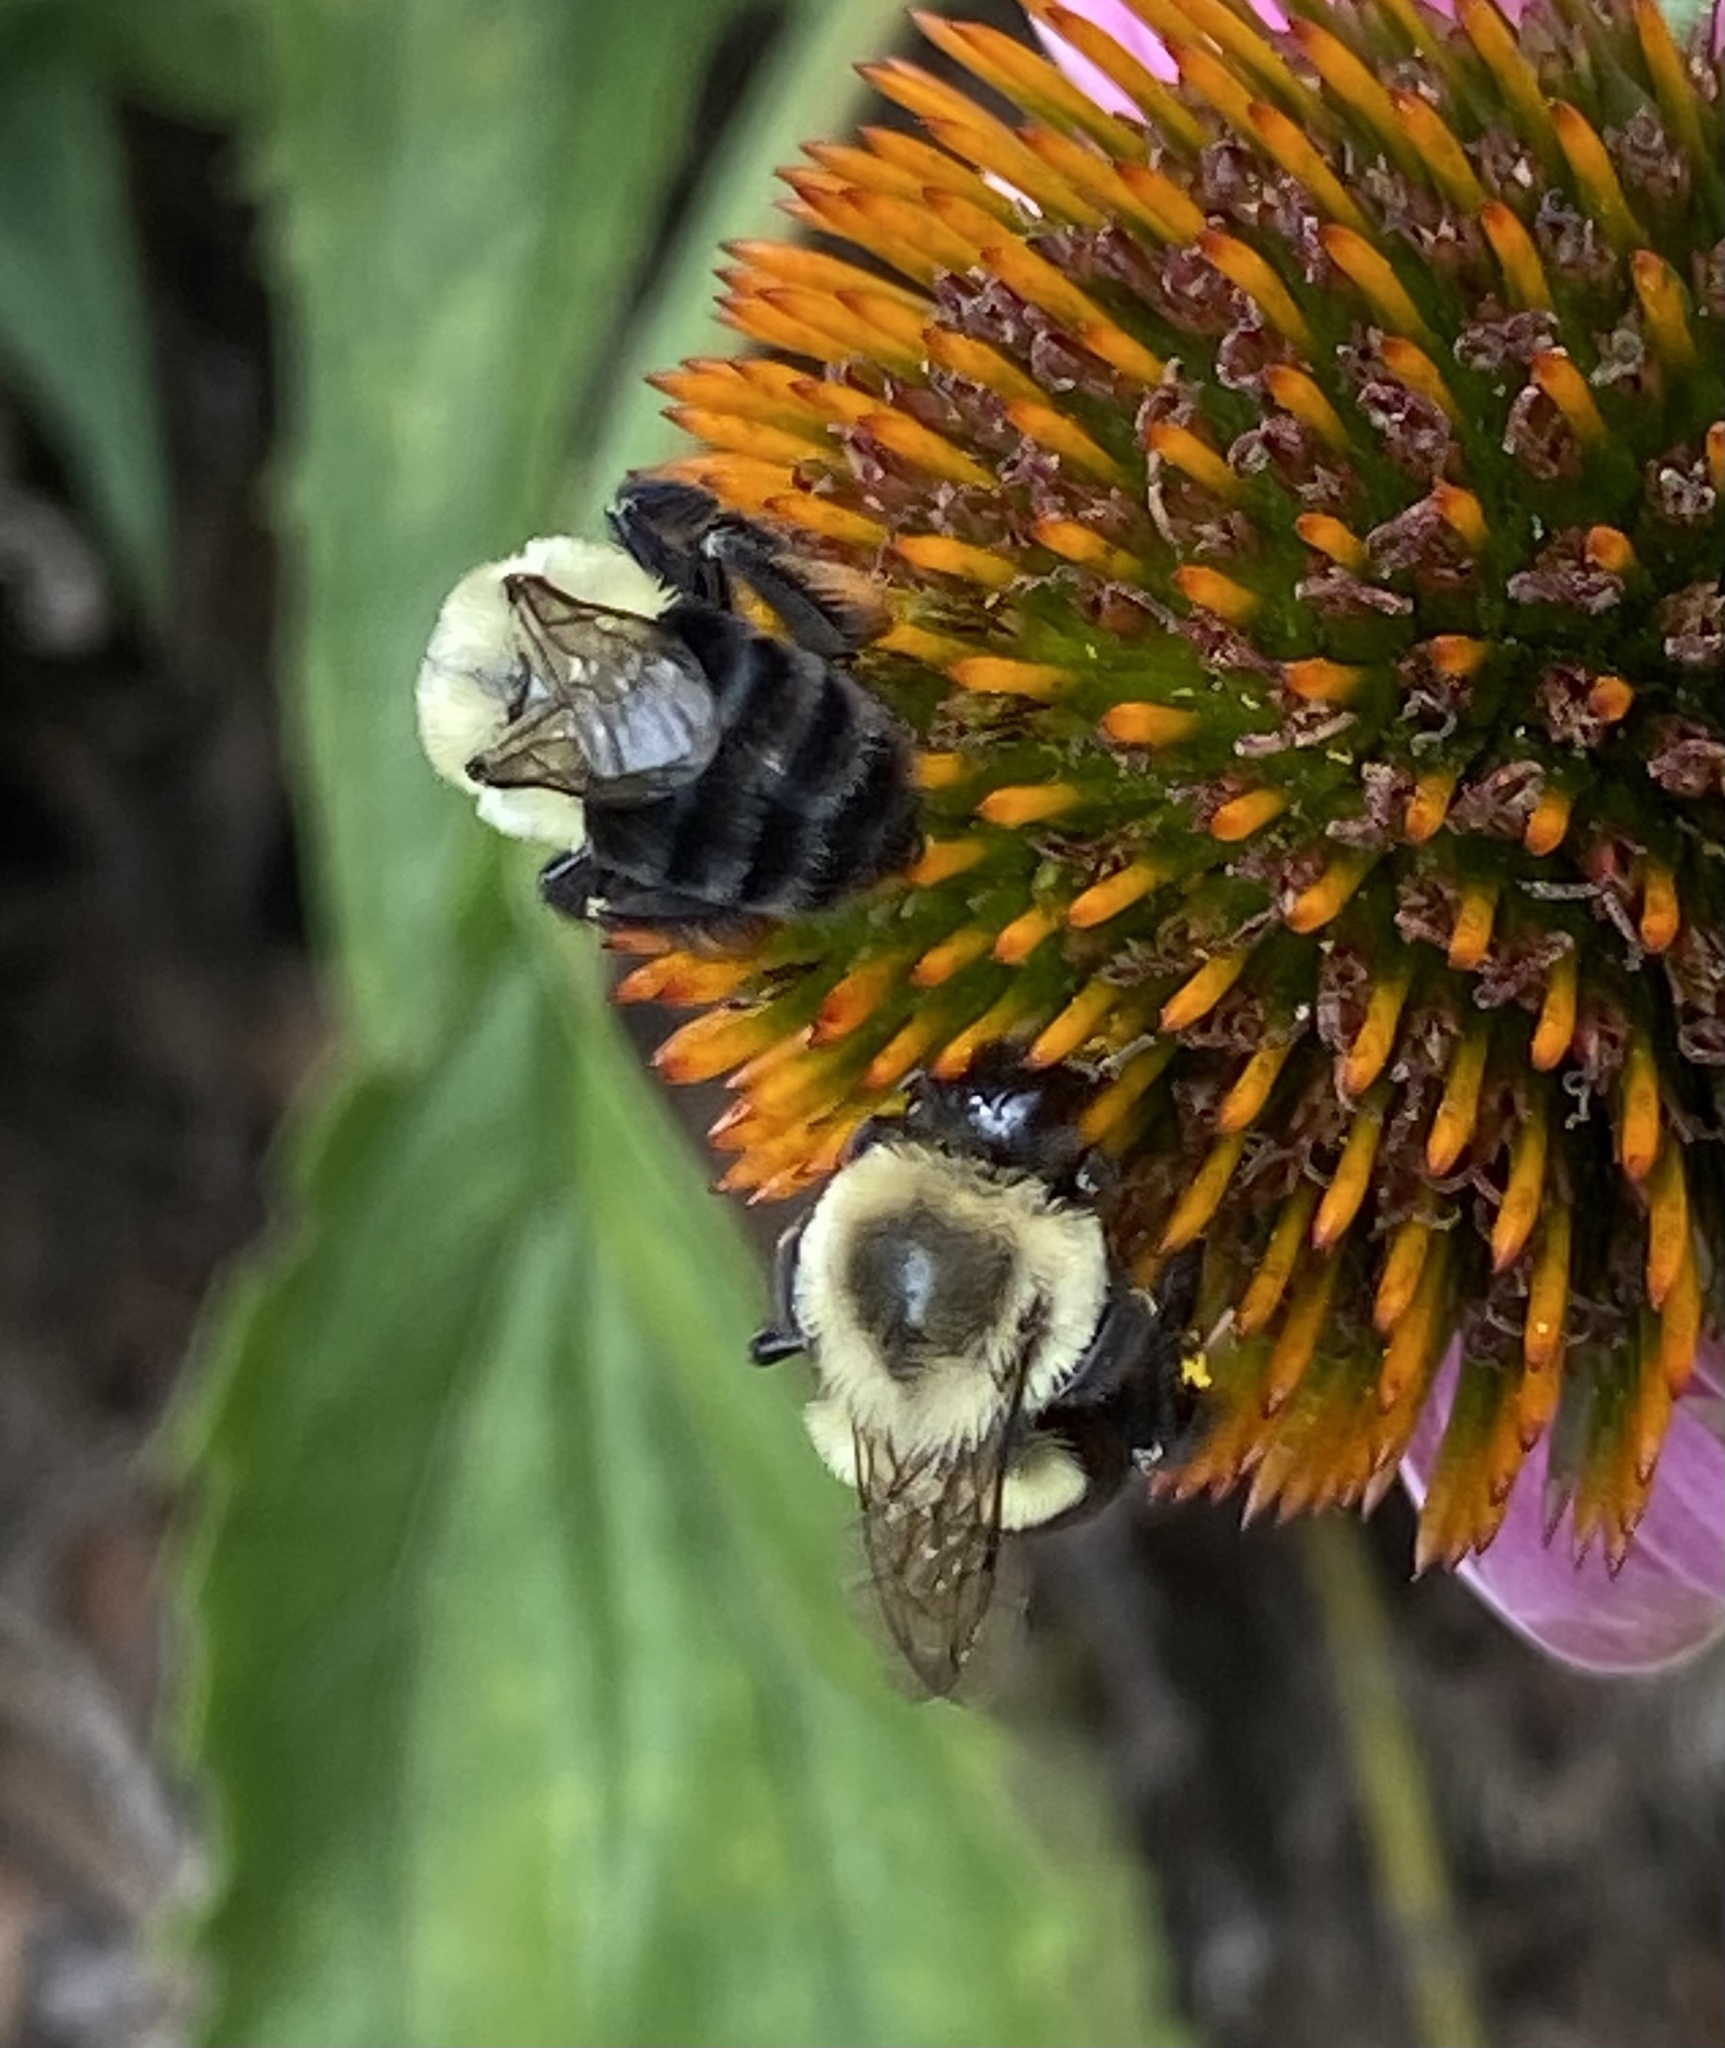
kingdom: Animalia
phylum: Arthropoda
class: Insecta
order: Hymenoptera
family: Apidae
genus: Bombus
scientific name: Bombus impatiens
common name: Common eastern bumble bee
